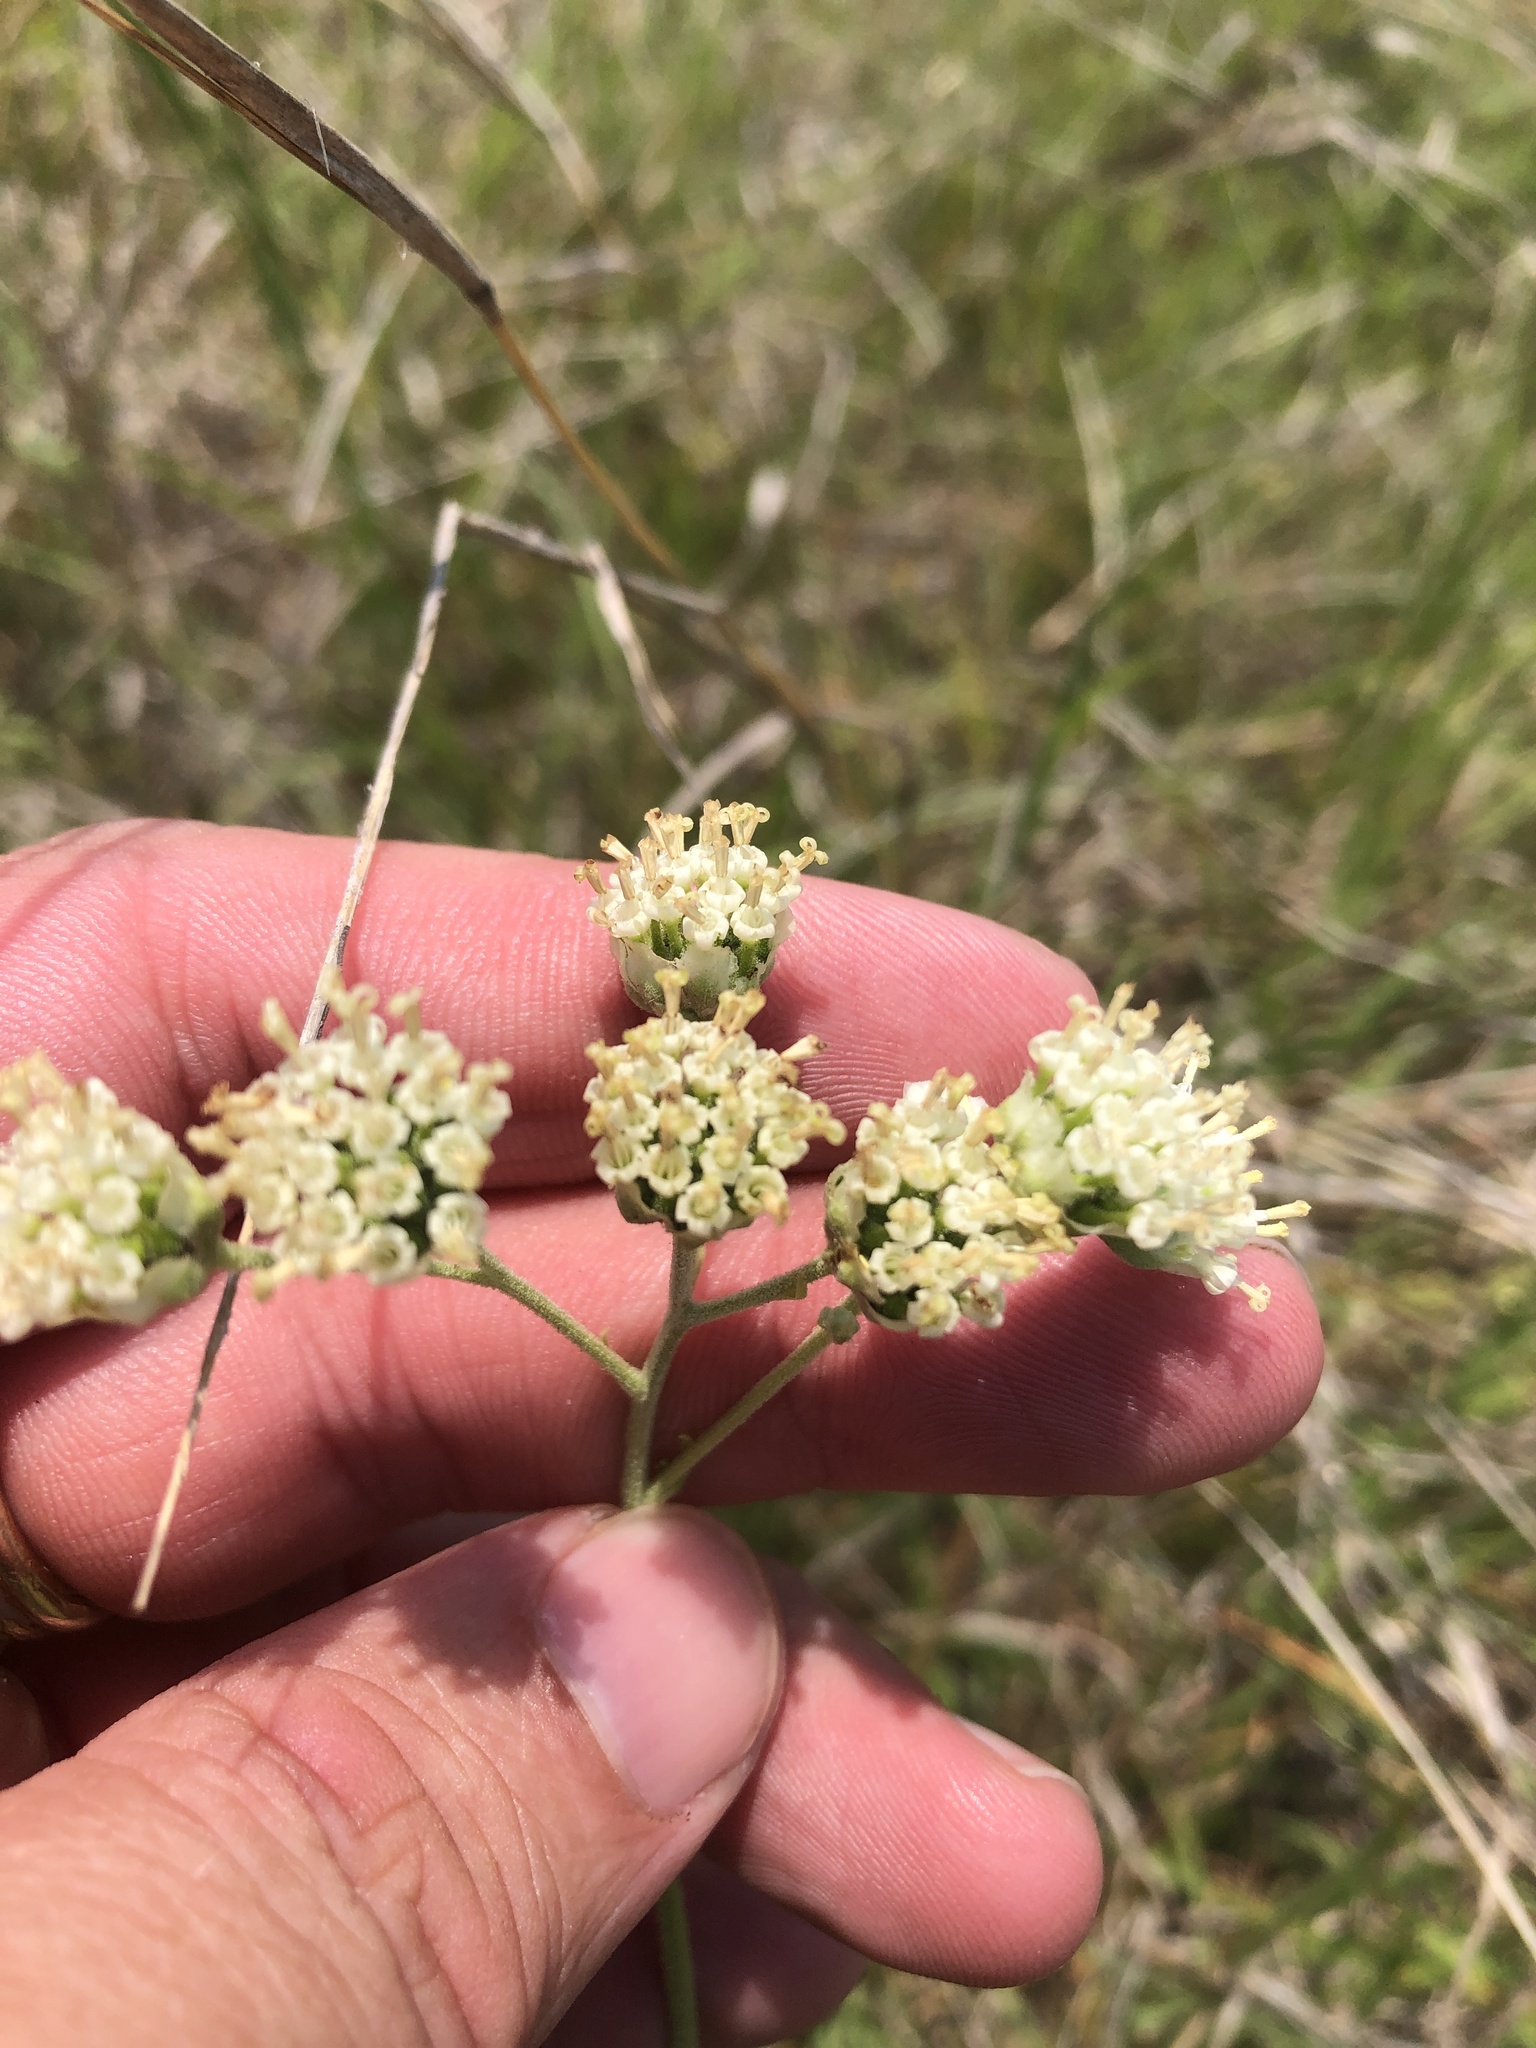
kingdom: Plantae
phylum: Tracheophyta
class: Magnoliopsida
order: Asterales
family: Asteraceae
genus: Hymenopappus
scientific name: Hymenopappus scabiosaeus
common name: Carolina woollywhite
